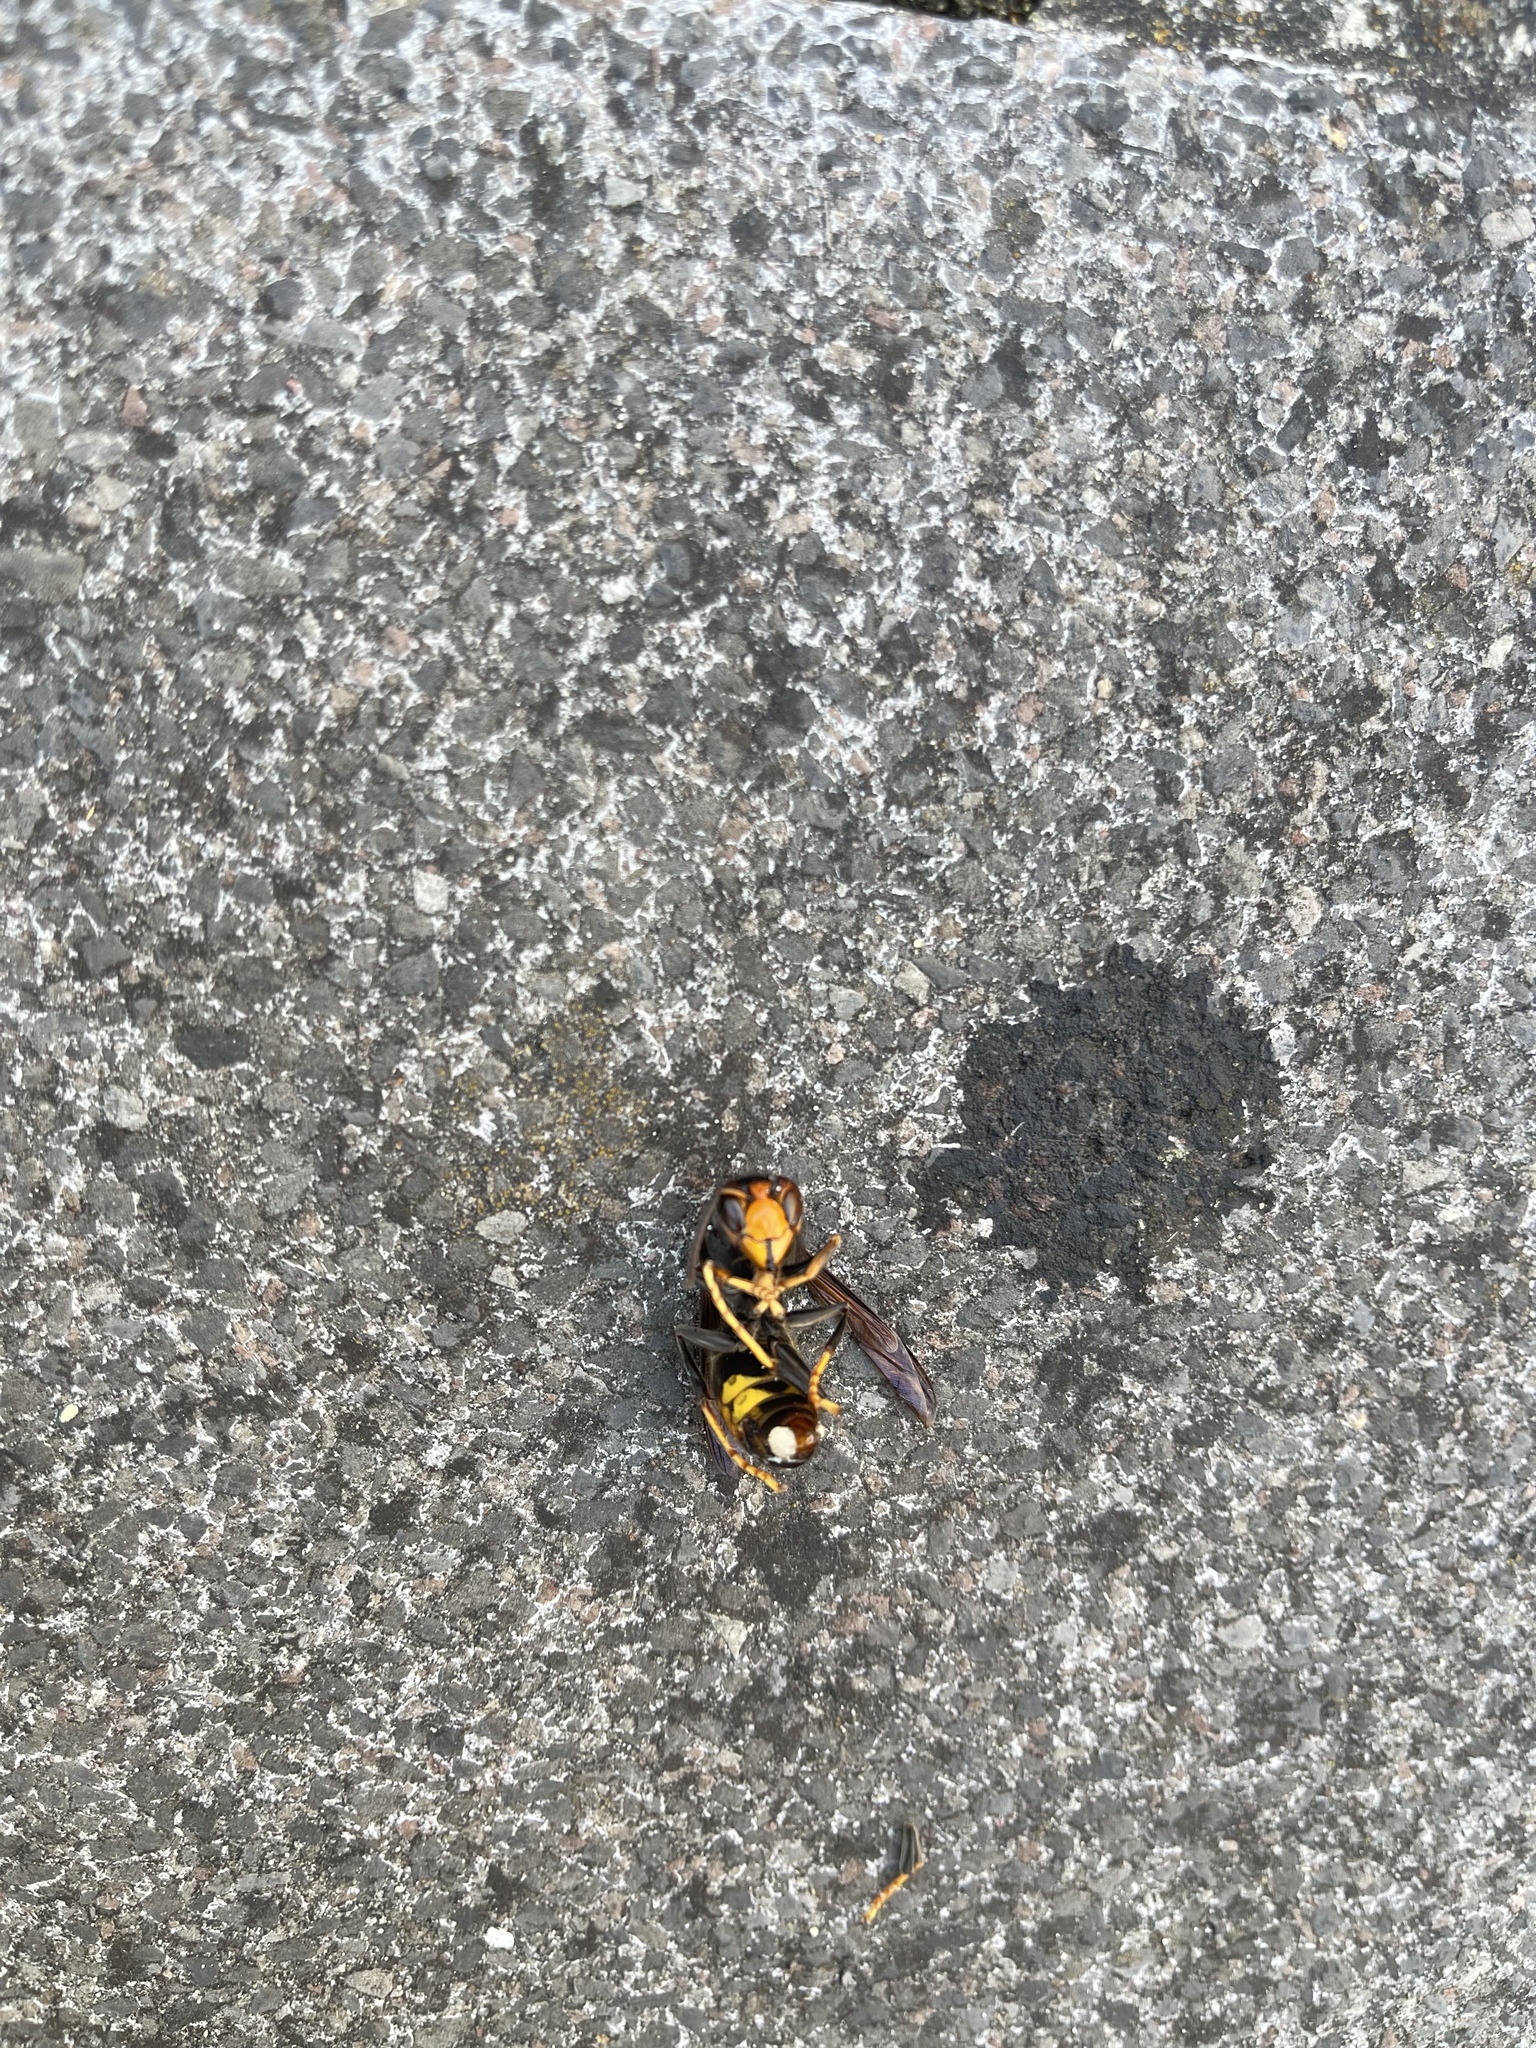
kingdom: Animalia
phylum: Arthropoda
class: Insecta
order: Hymenoptera
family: Vespidae
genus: Vespa
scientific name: Vespa velutina
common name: Asian hornet
